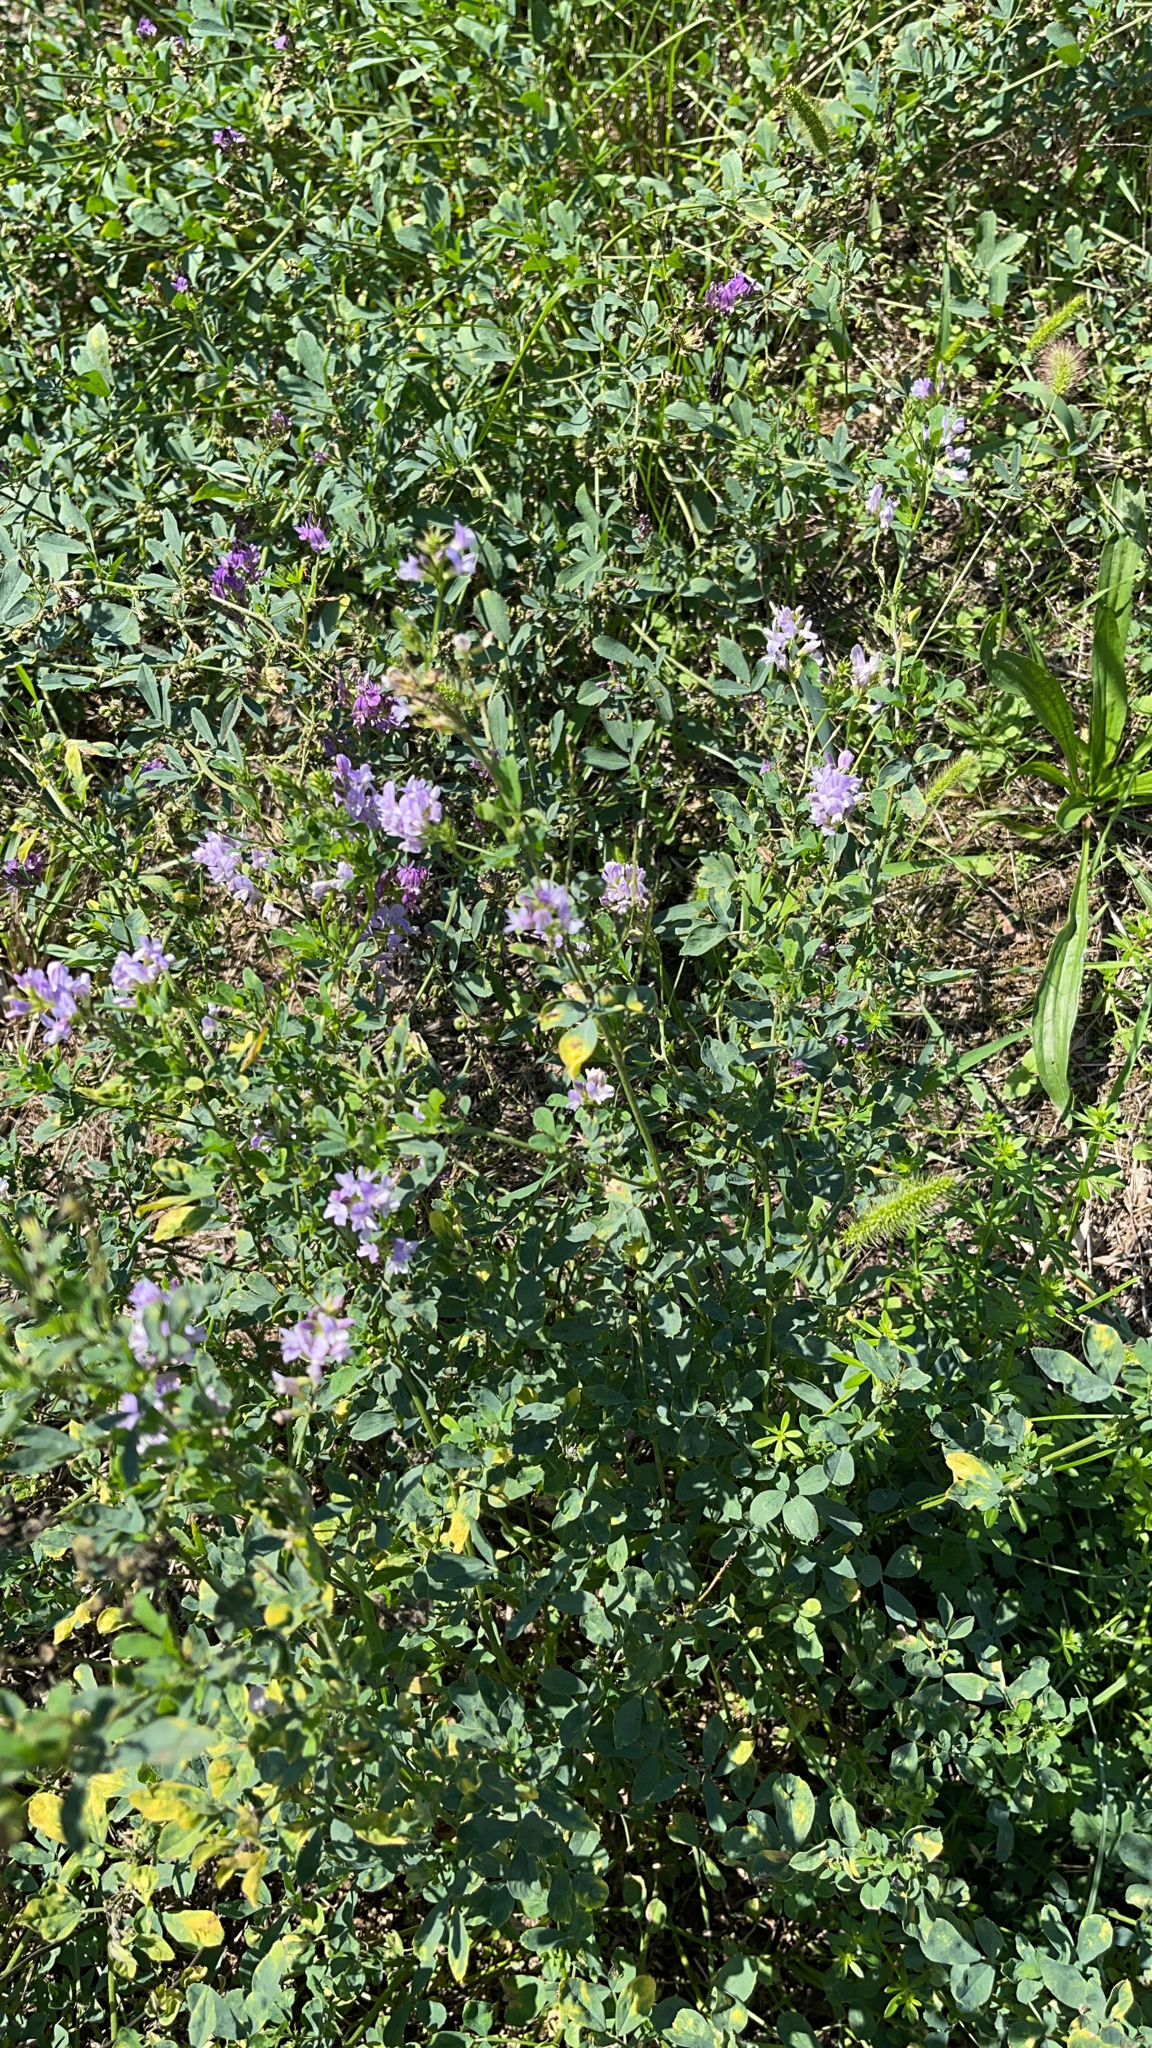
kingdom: Plantae
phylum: Tracheophyta
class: Magnoliopsida
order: Fabales
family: Fabaceae
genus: Medicago
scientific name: Medicago sativa
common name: Alfalfa
